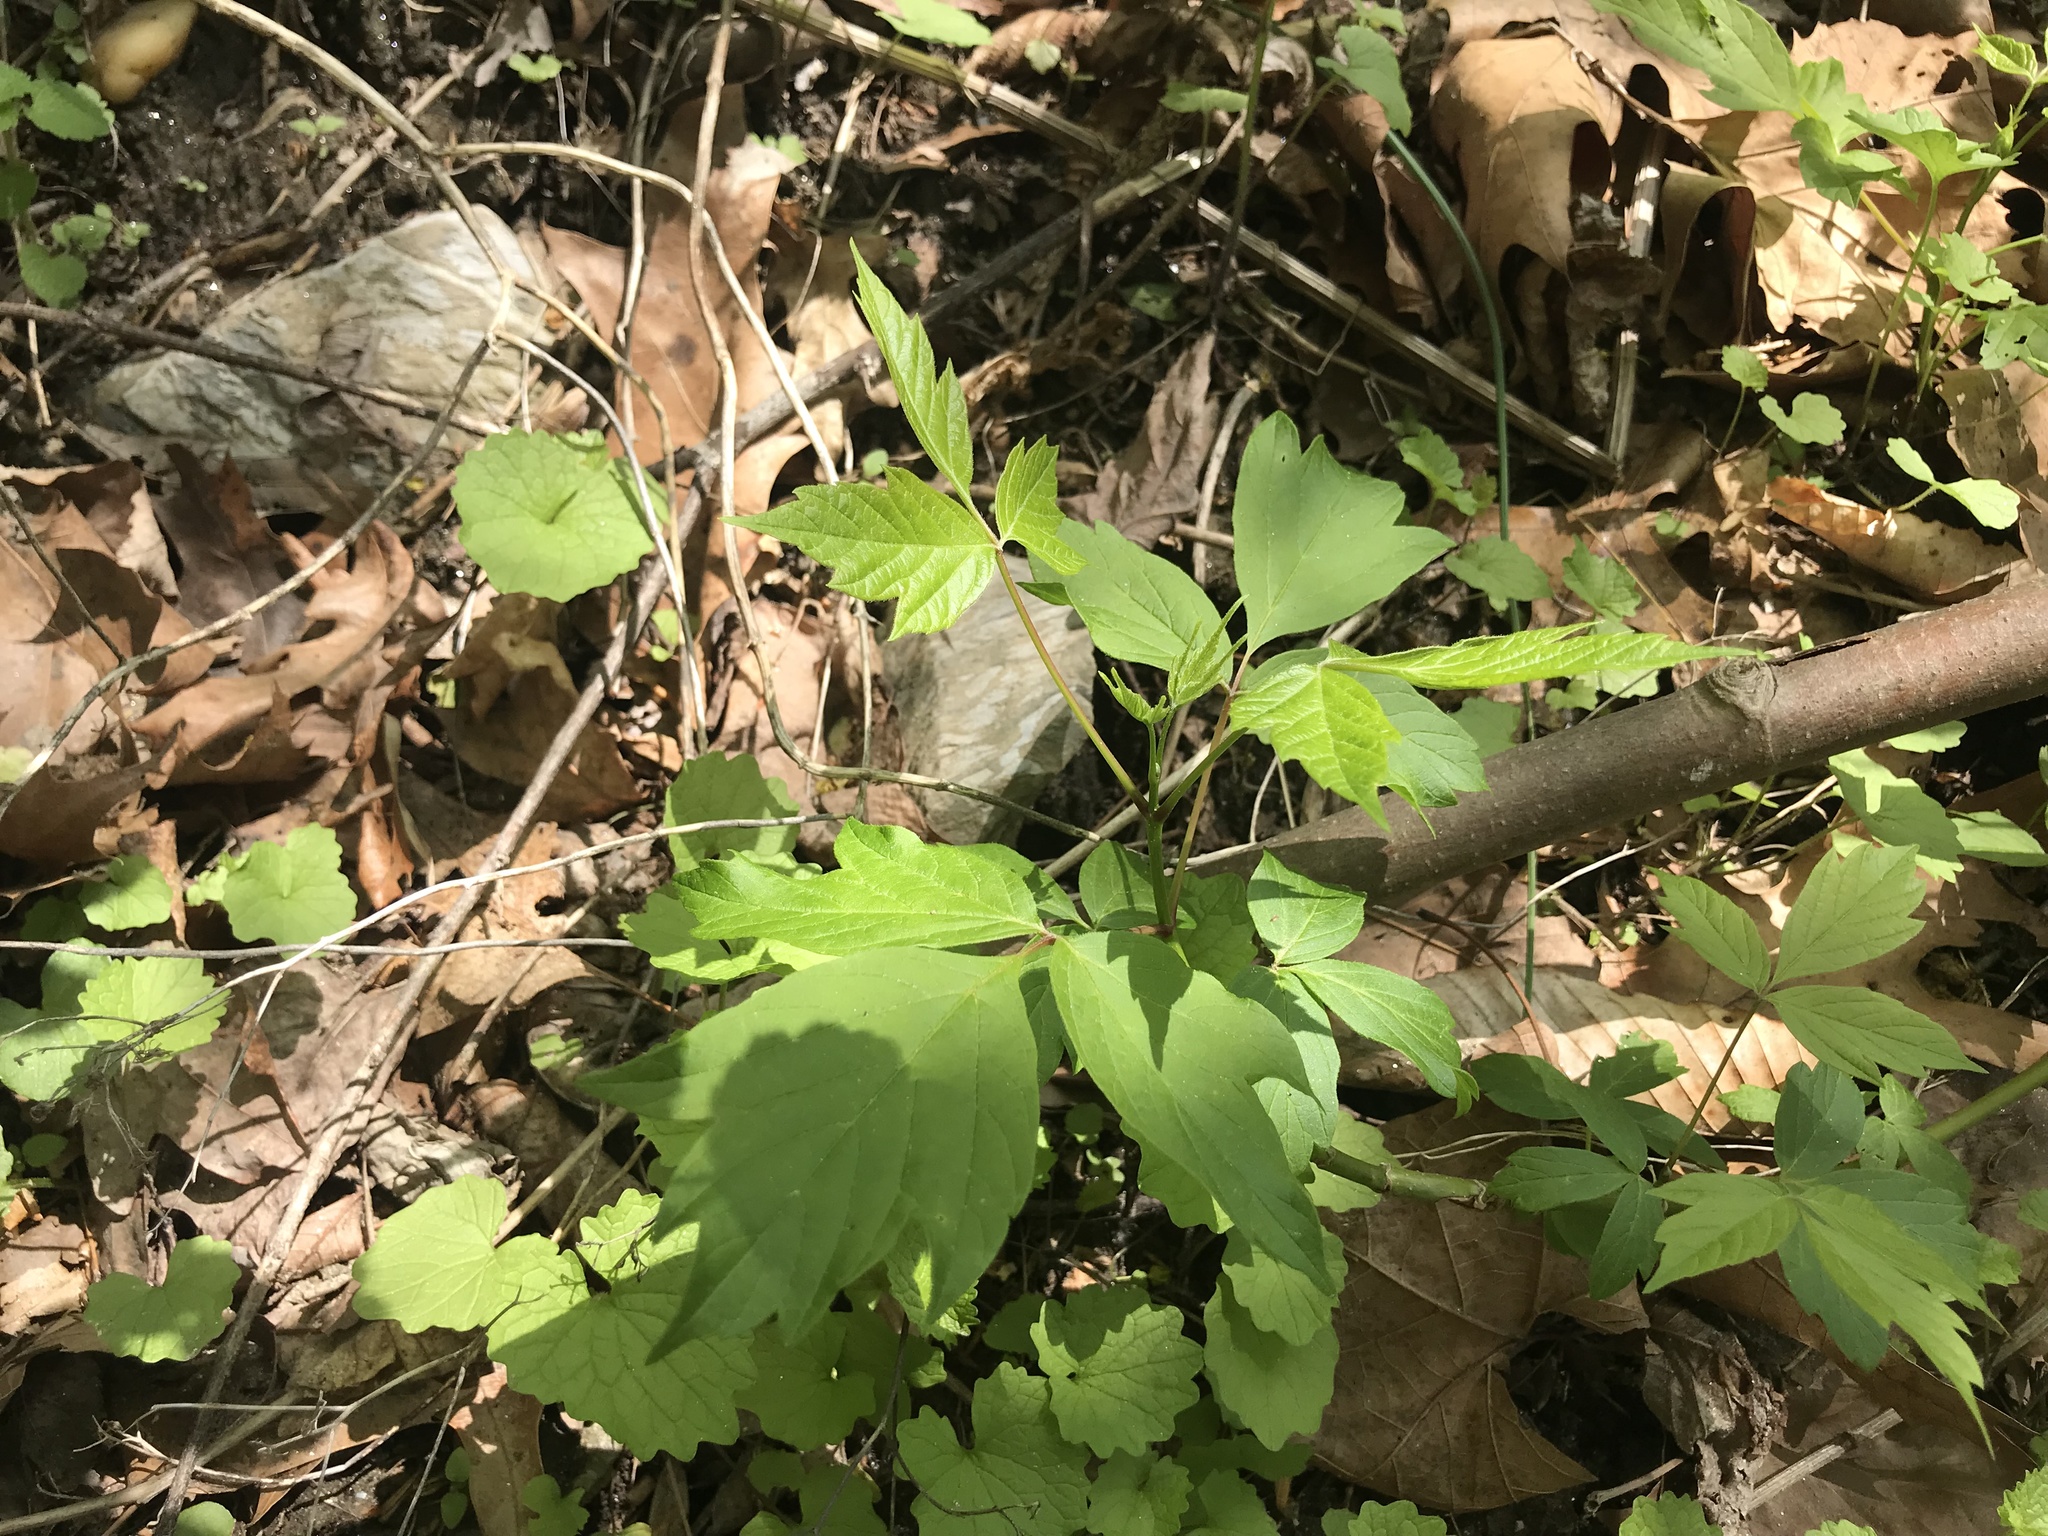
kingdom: Plantae
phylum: Tracheophyta
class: Magnoliopsida
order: Sapindales
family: Sapindaceae
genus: Acer
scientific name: Acer negundo
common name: Ashleaf maple
